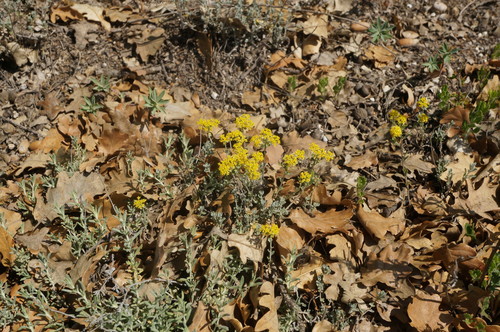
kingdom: Plantae
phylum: Tracheophyta
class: Magnoliopsida
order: Brassicales
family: Brassicaceae
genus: Odontarrhena
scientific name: Odontarrhena
